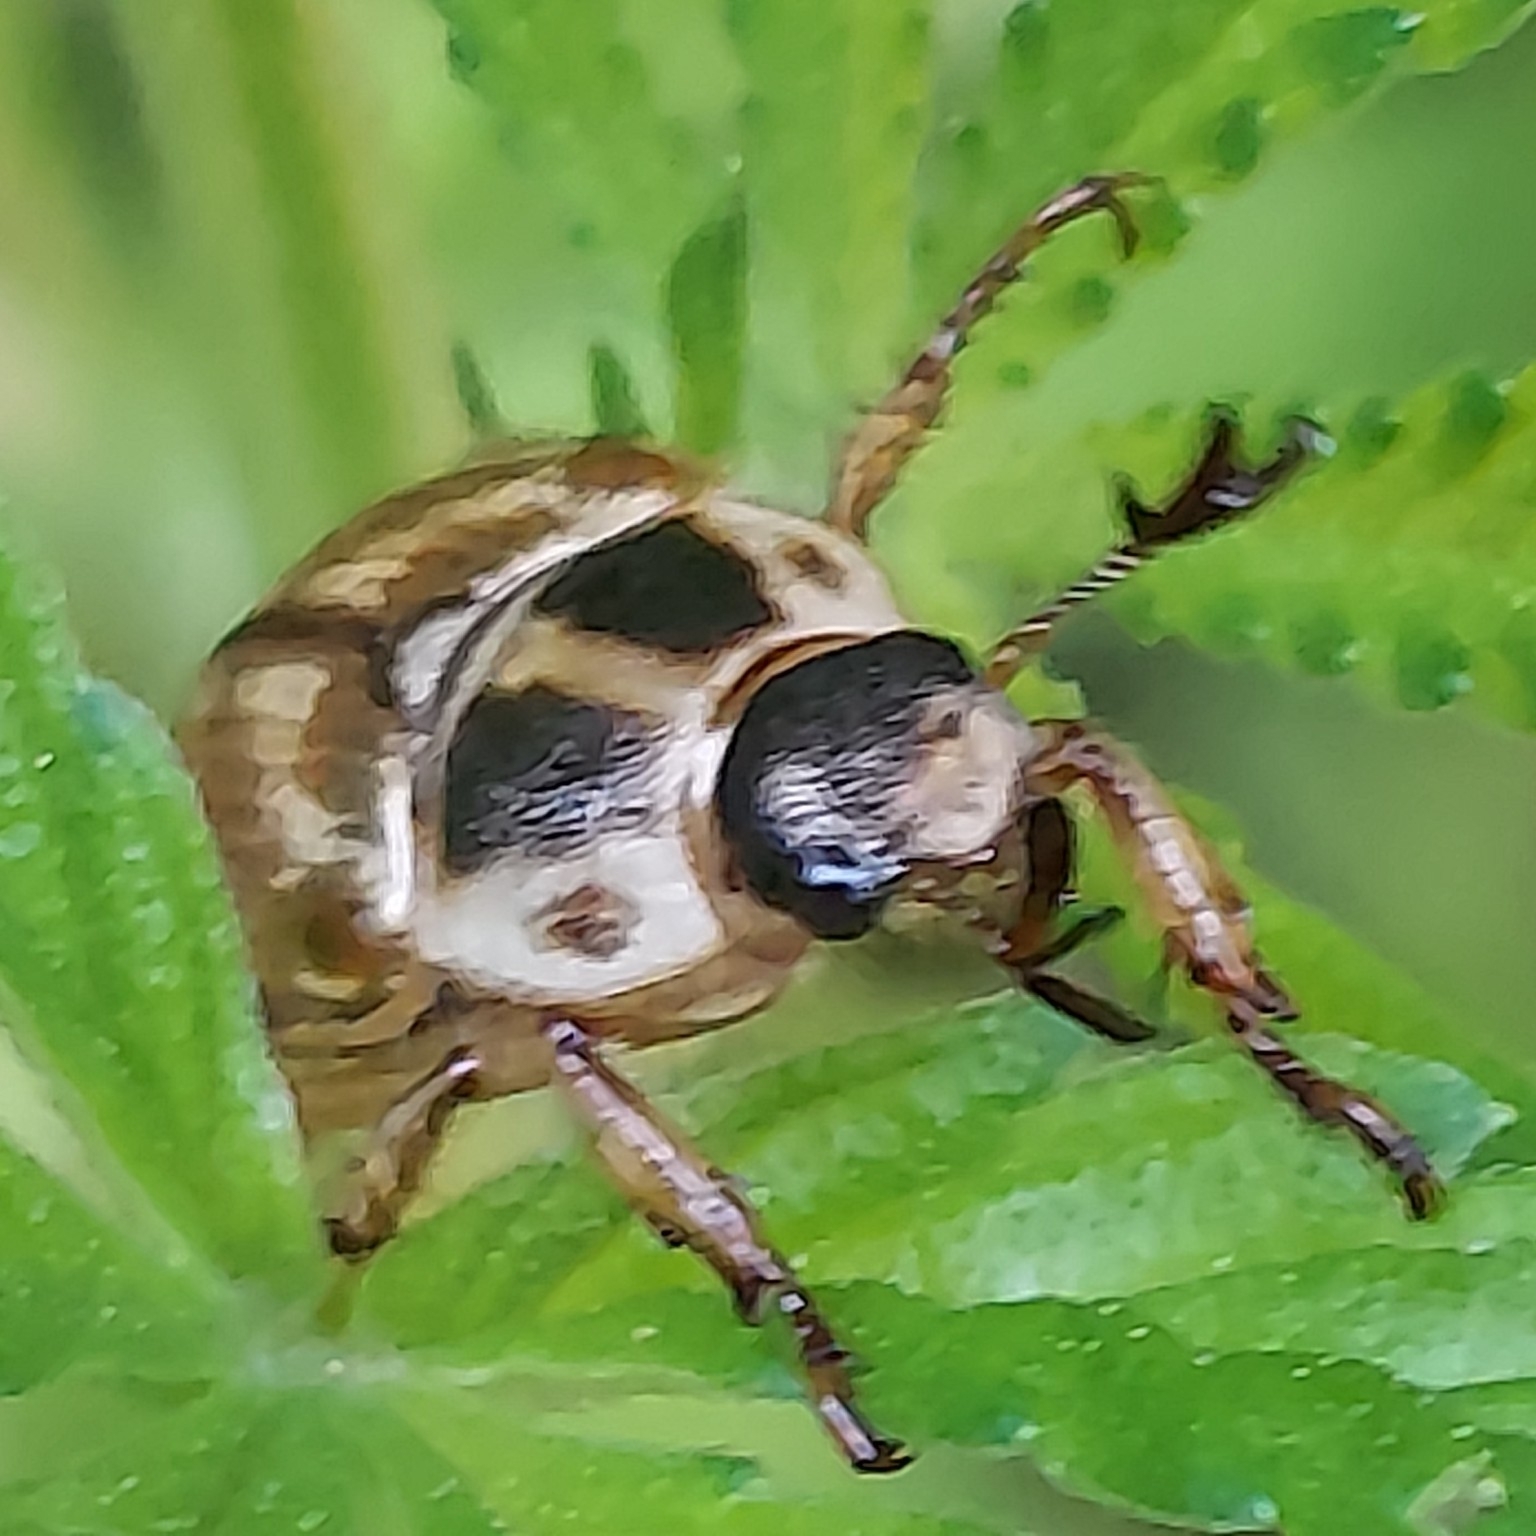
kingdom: Animalia
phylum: Arthropoda
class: Insecta
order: Coleoptera
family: Scarabaeidae
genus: Exomala
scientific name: Exomala orientalis
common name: Oriental beetle
